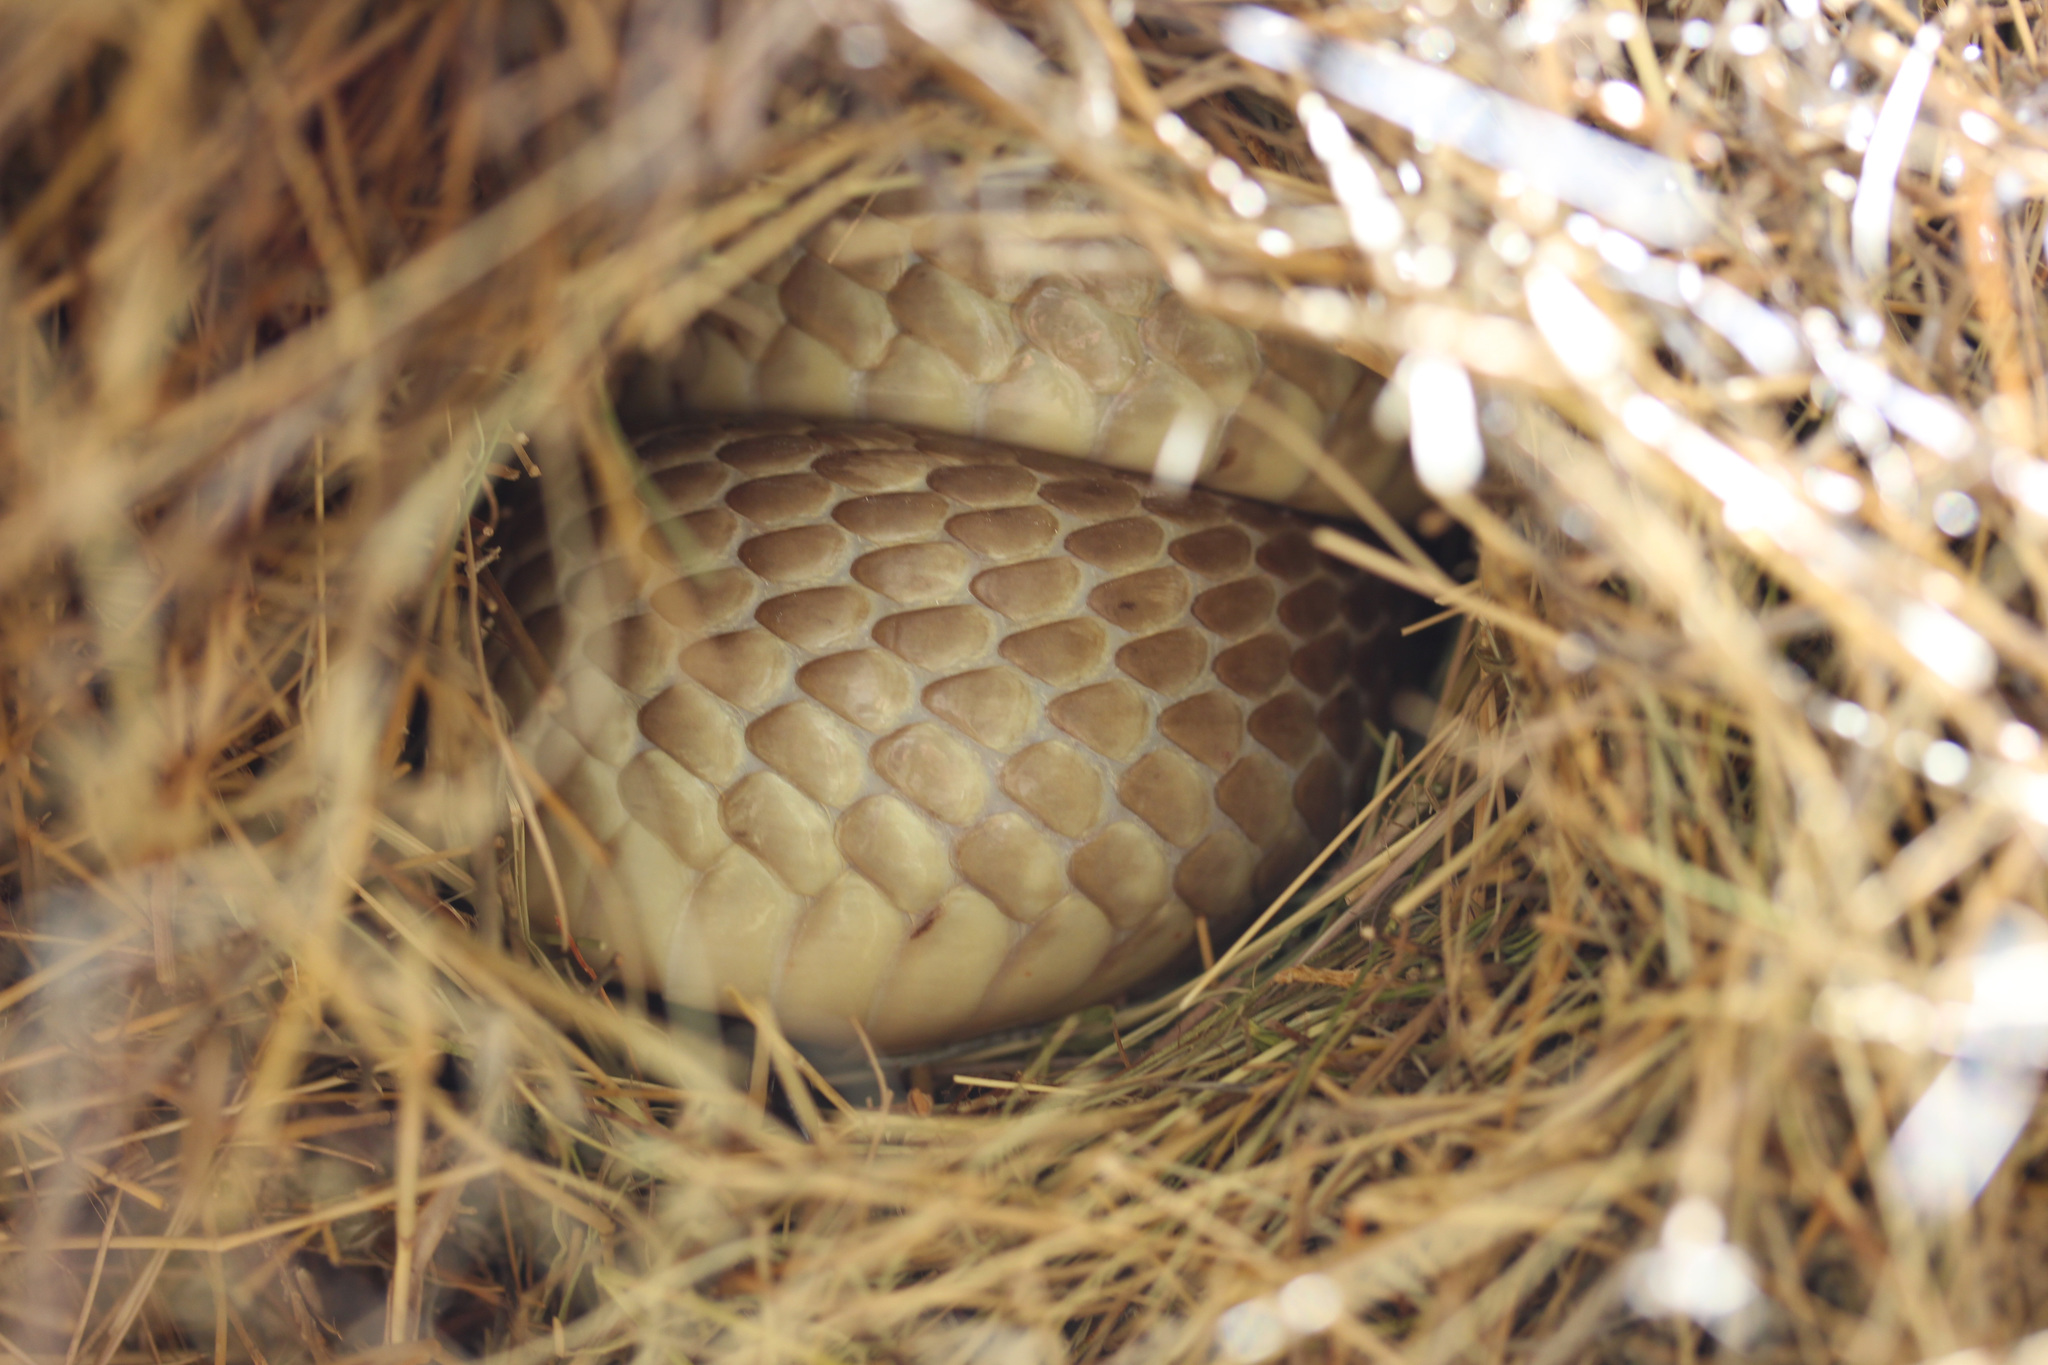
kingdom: Animalia
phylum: Chordata
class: Squamata
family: Elapidae
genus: Naja
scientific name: Naja nivea
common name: Cape cobra
